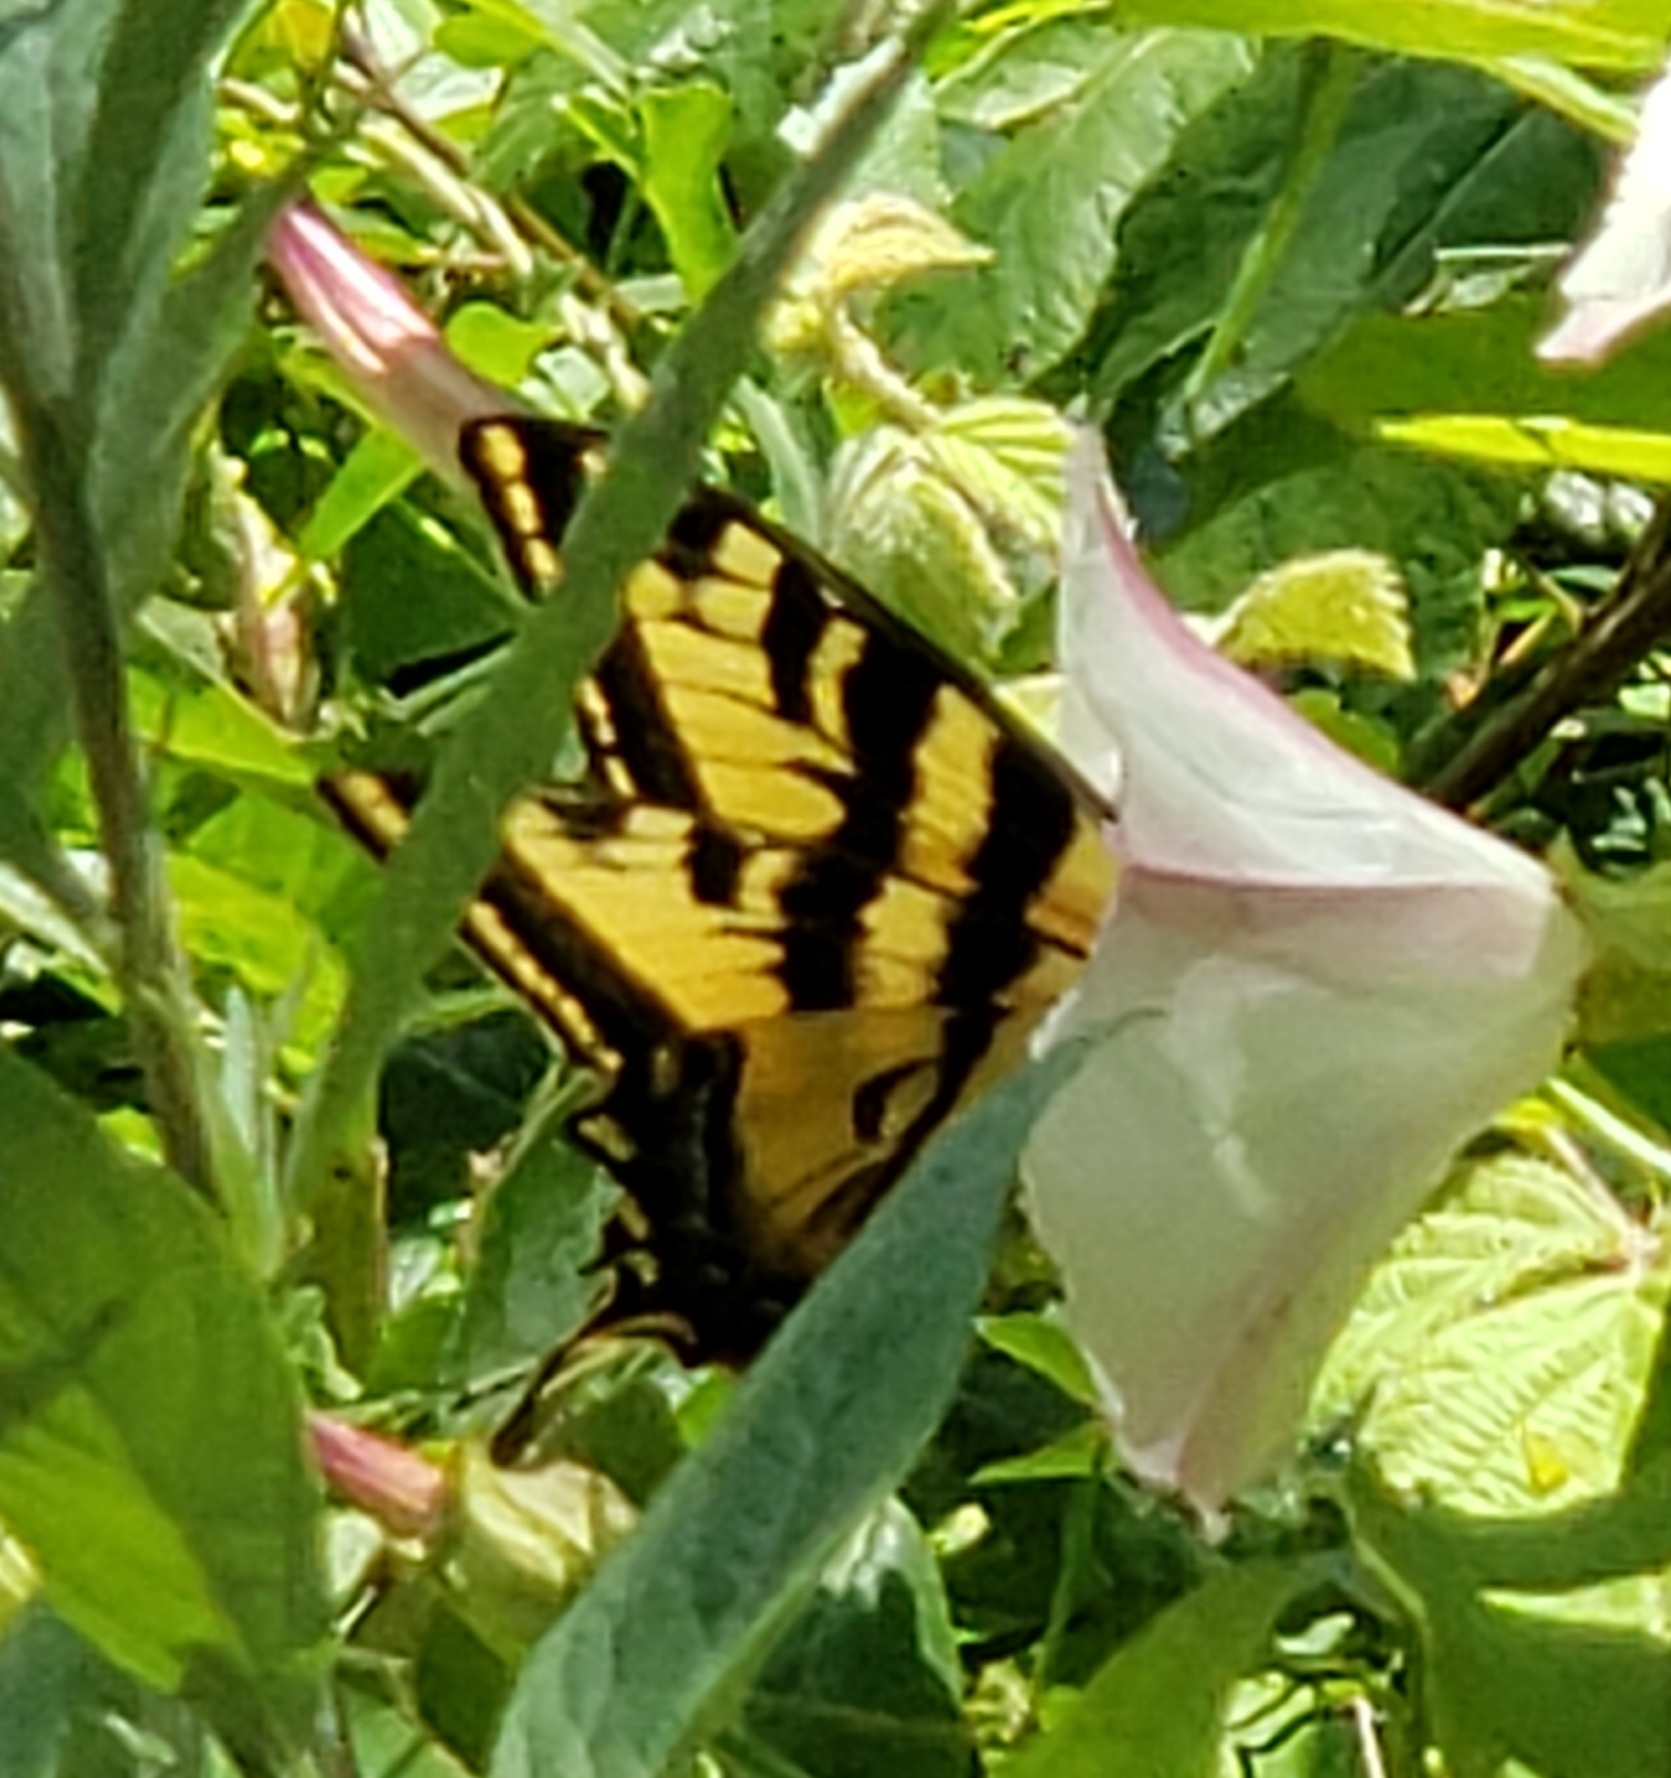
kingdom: Animalia
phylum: Arthropoda
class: Insecta
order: Lepidoptera
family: Papilionidae
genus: Papilio
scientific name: Papilio rutulus
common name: Western tiger swallowtail
